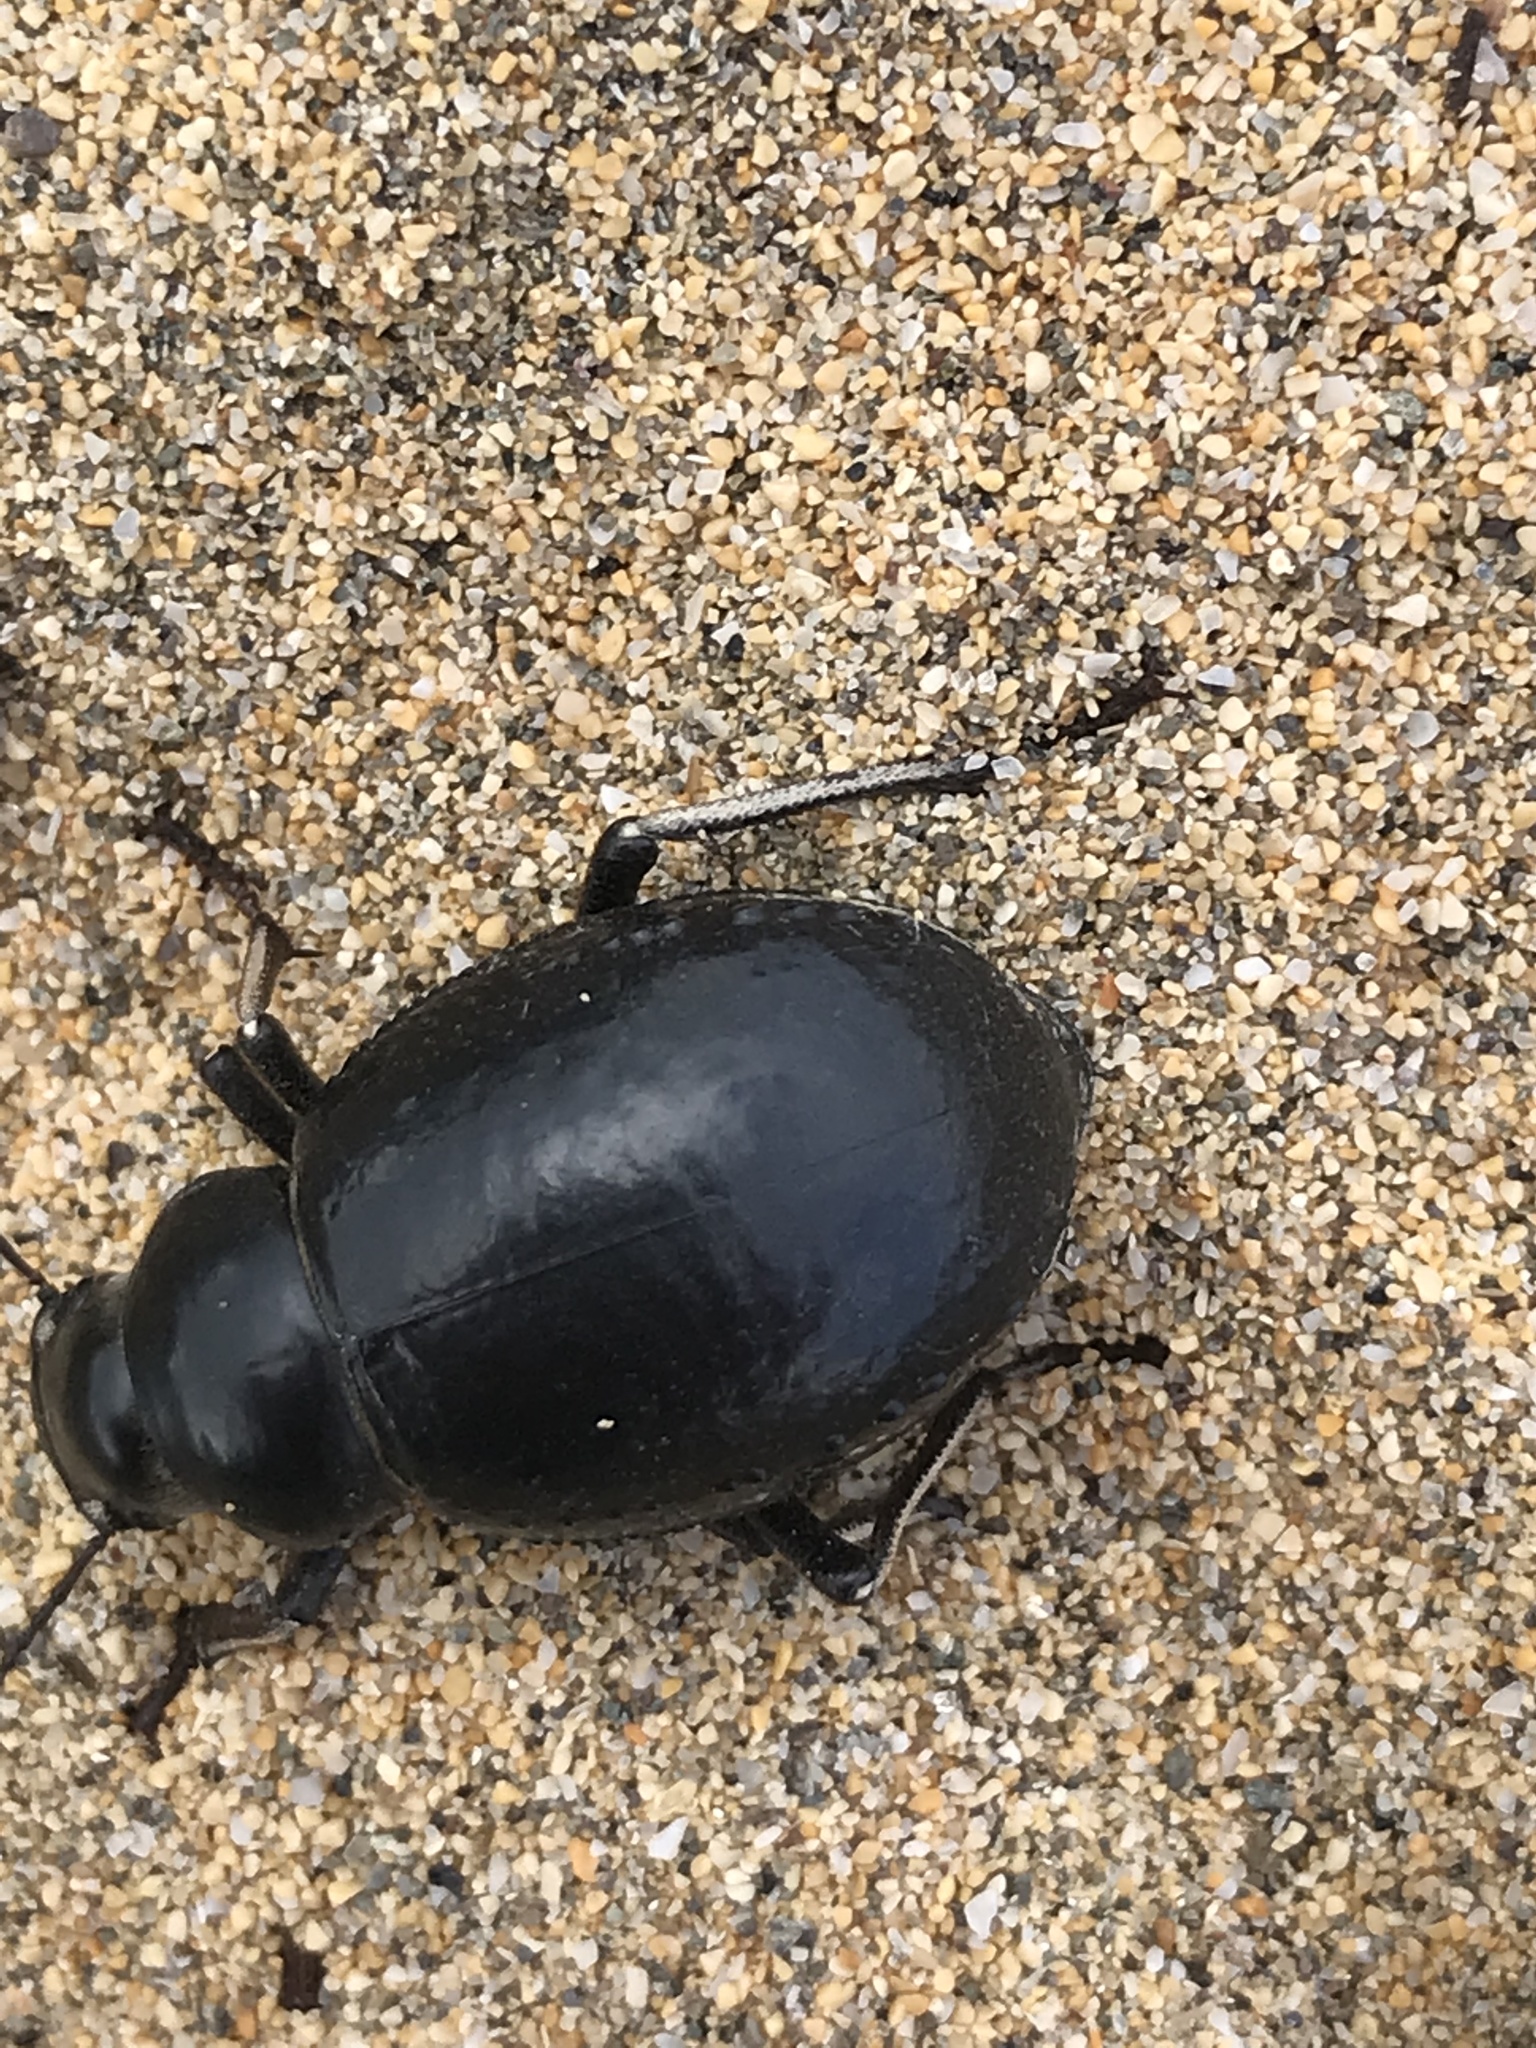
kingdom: Animalia
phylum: Arthropoda
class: Insecta
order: Coleoptera
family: Tenebrionidae
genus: Pimelia
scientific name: Pimelia granulicollis
